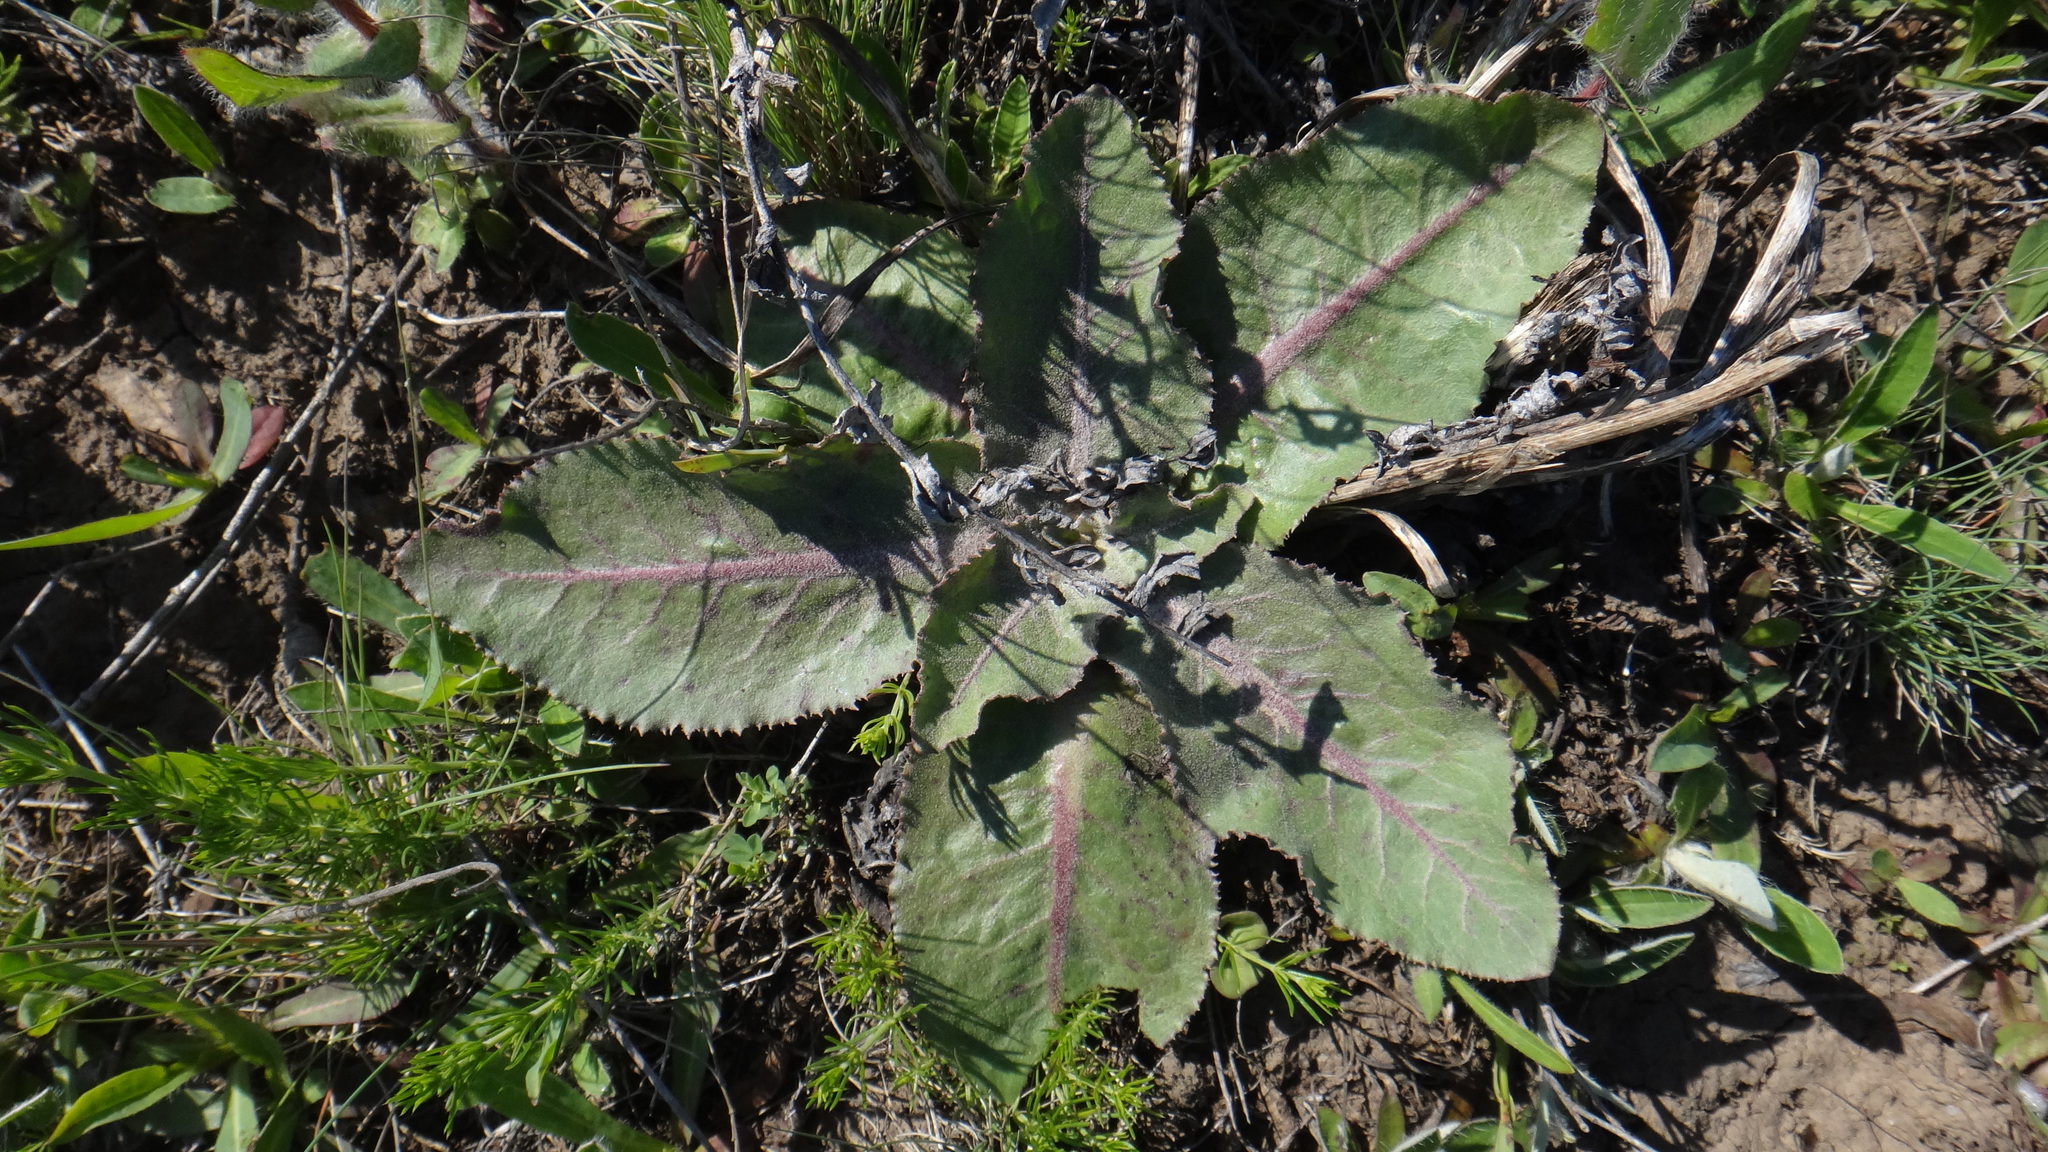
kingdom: Plantae
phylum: Tracheophyta
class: Magnoliopsida
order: Asterales
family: Asteraceae
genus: Trommsdorffia
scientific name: Trommsdorffia maculata
